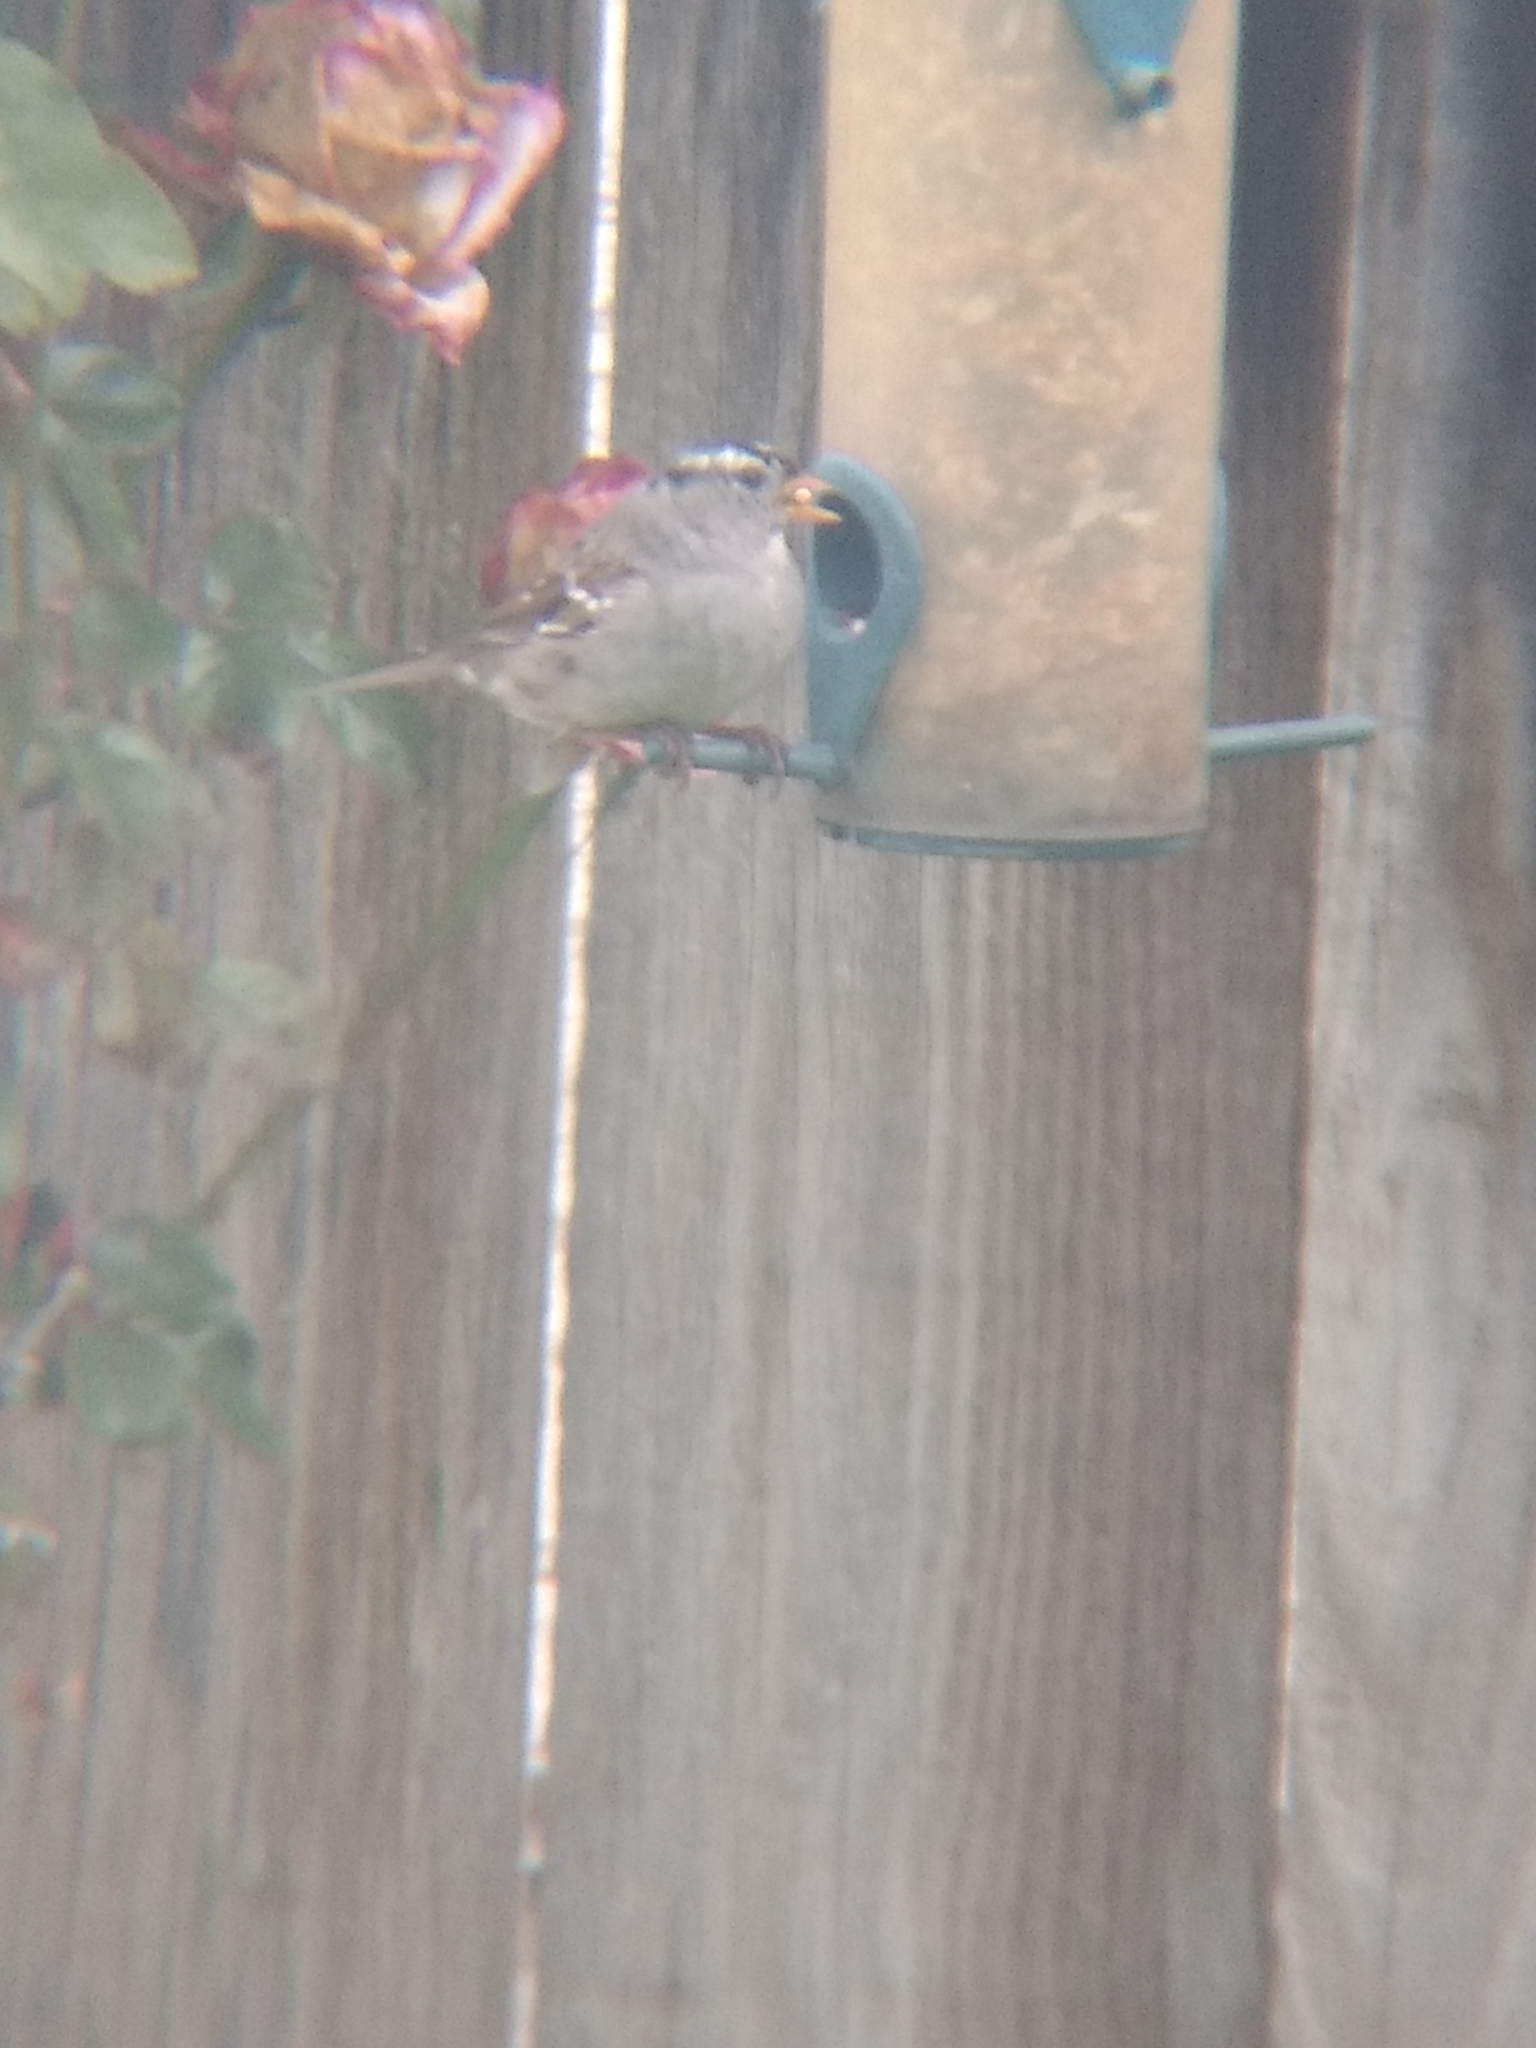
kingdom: Animalia
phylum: Chordata
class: Aves
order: Passeriformes
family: Passerellidae
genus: Zonotrichia
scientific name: Zonotrichia leucophrys
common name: White-crowned sparrow
